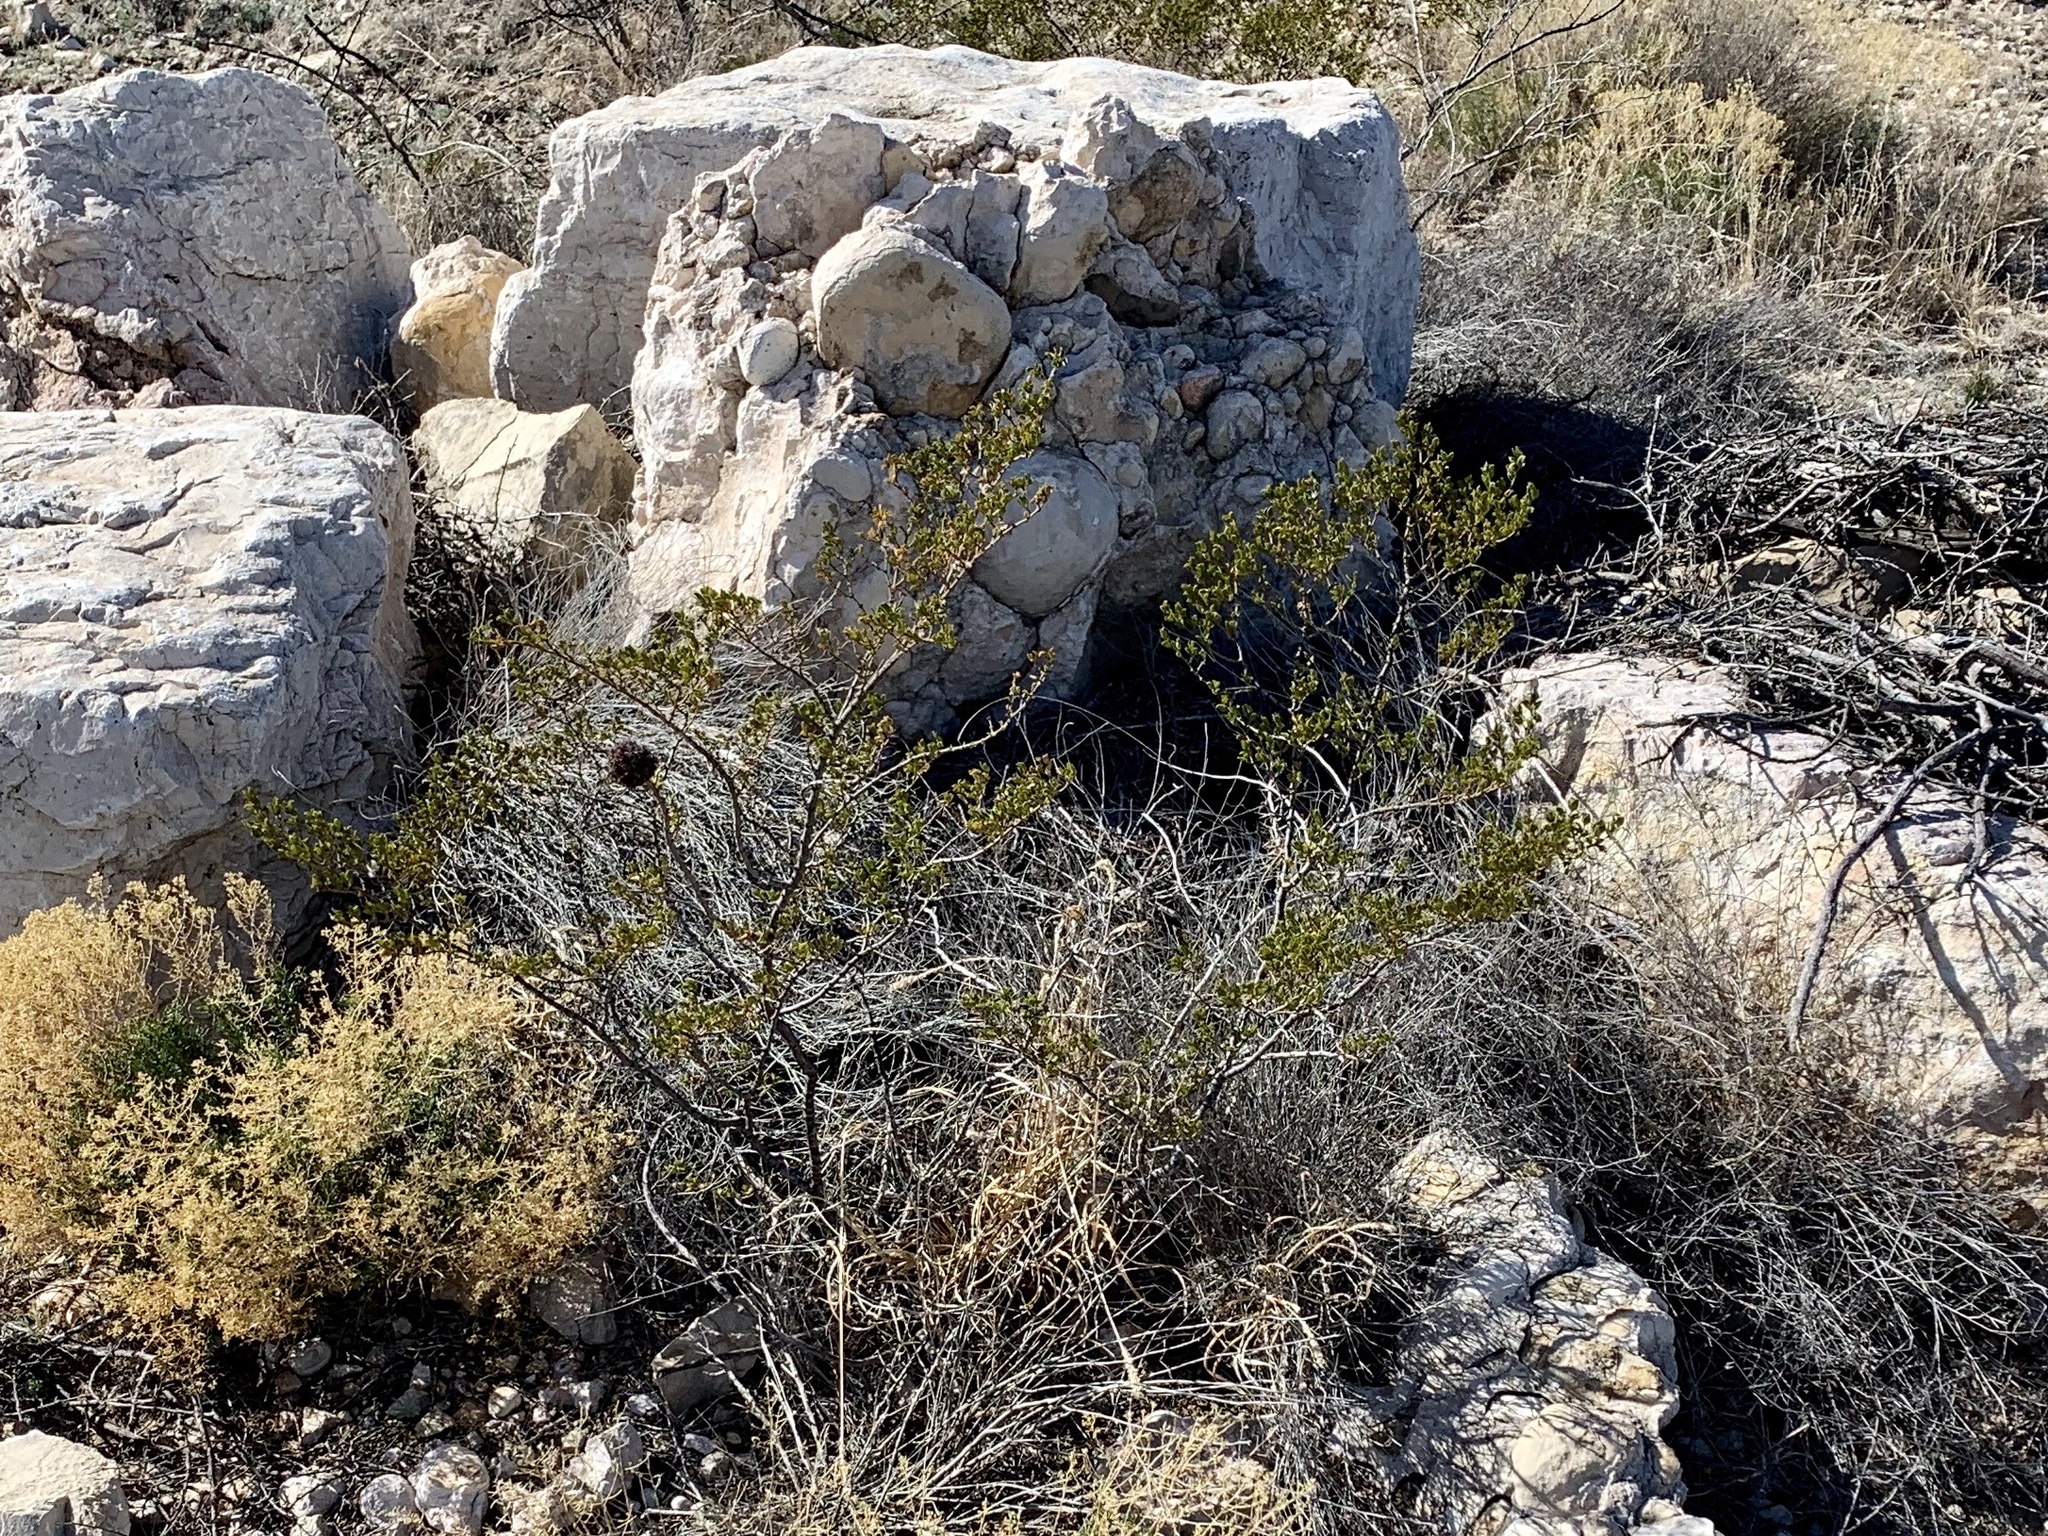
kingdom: Plantae
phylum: Tracheophyta
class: Magnoliopsida
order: Zygophyllales
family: Zygophyllaceae
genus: Larrea
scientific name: Larrea tridentata
